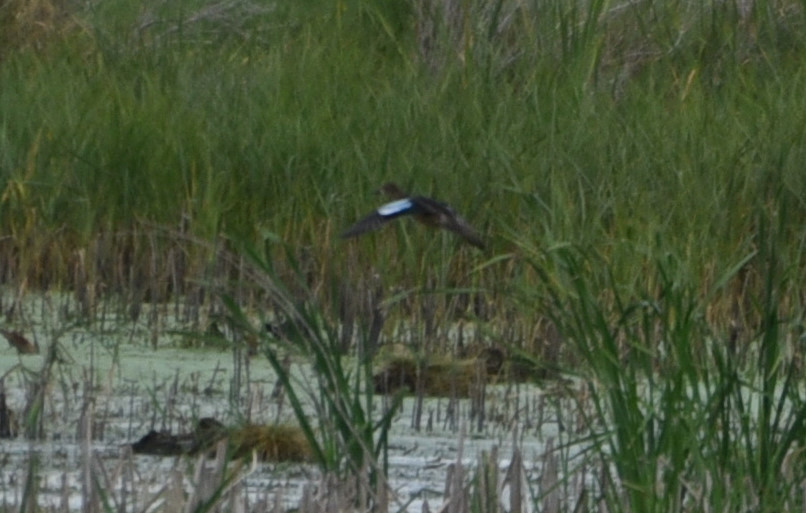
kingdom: Animalia
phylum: Chordata
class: Aves
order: Anseriformes
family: Anatidae
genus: Spatula
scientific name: Spatula discors
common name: Blue-winged teal
